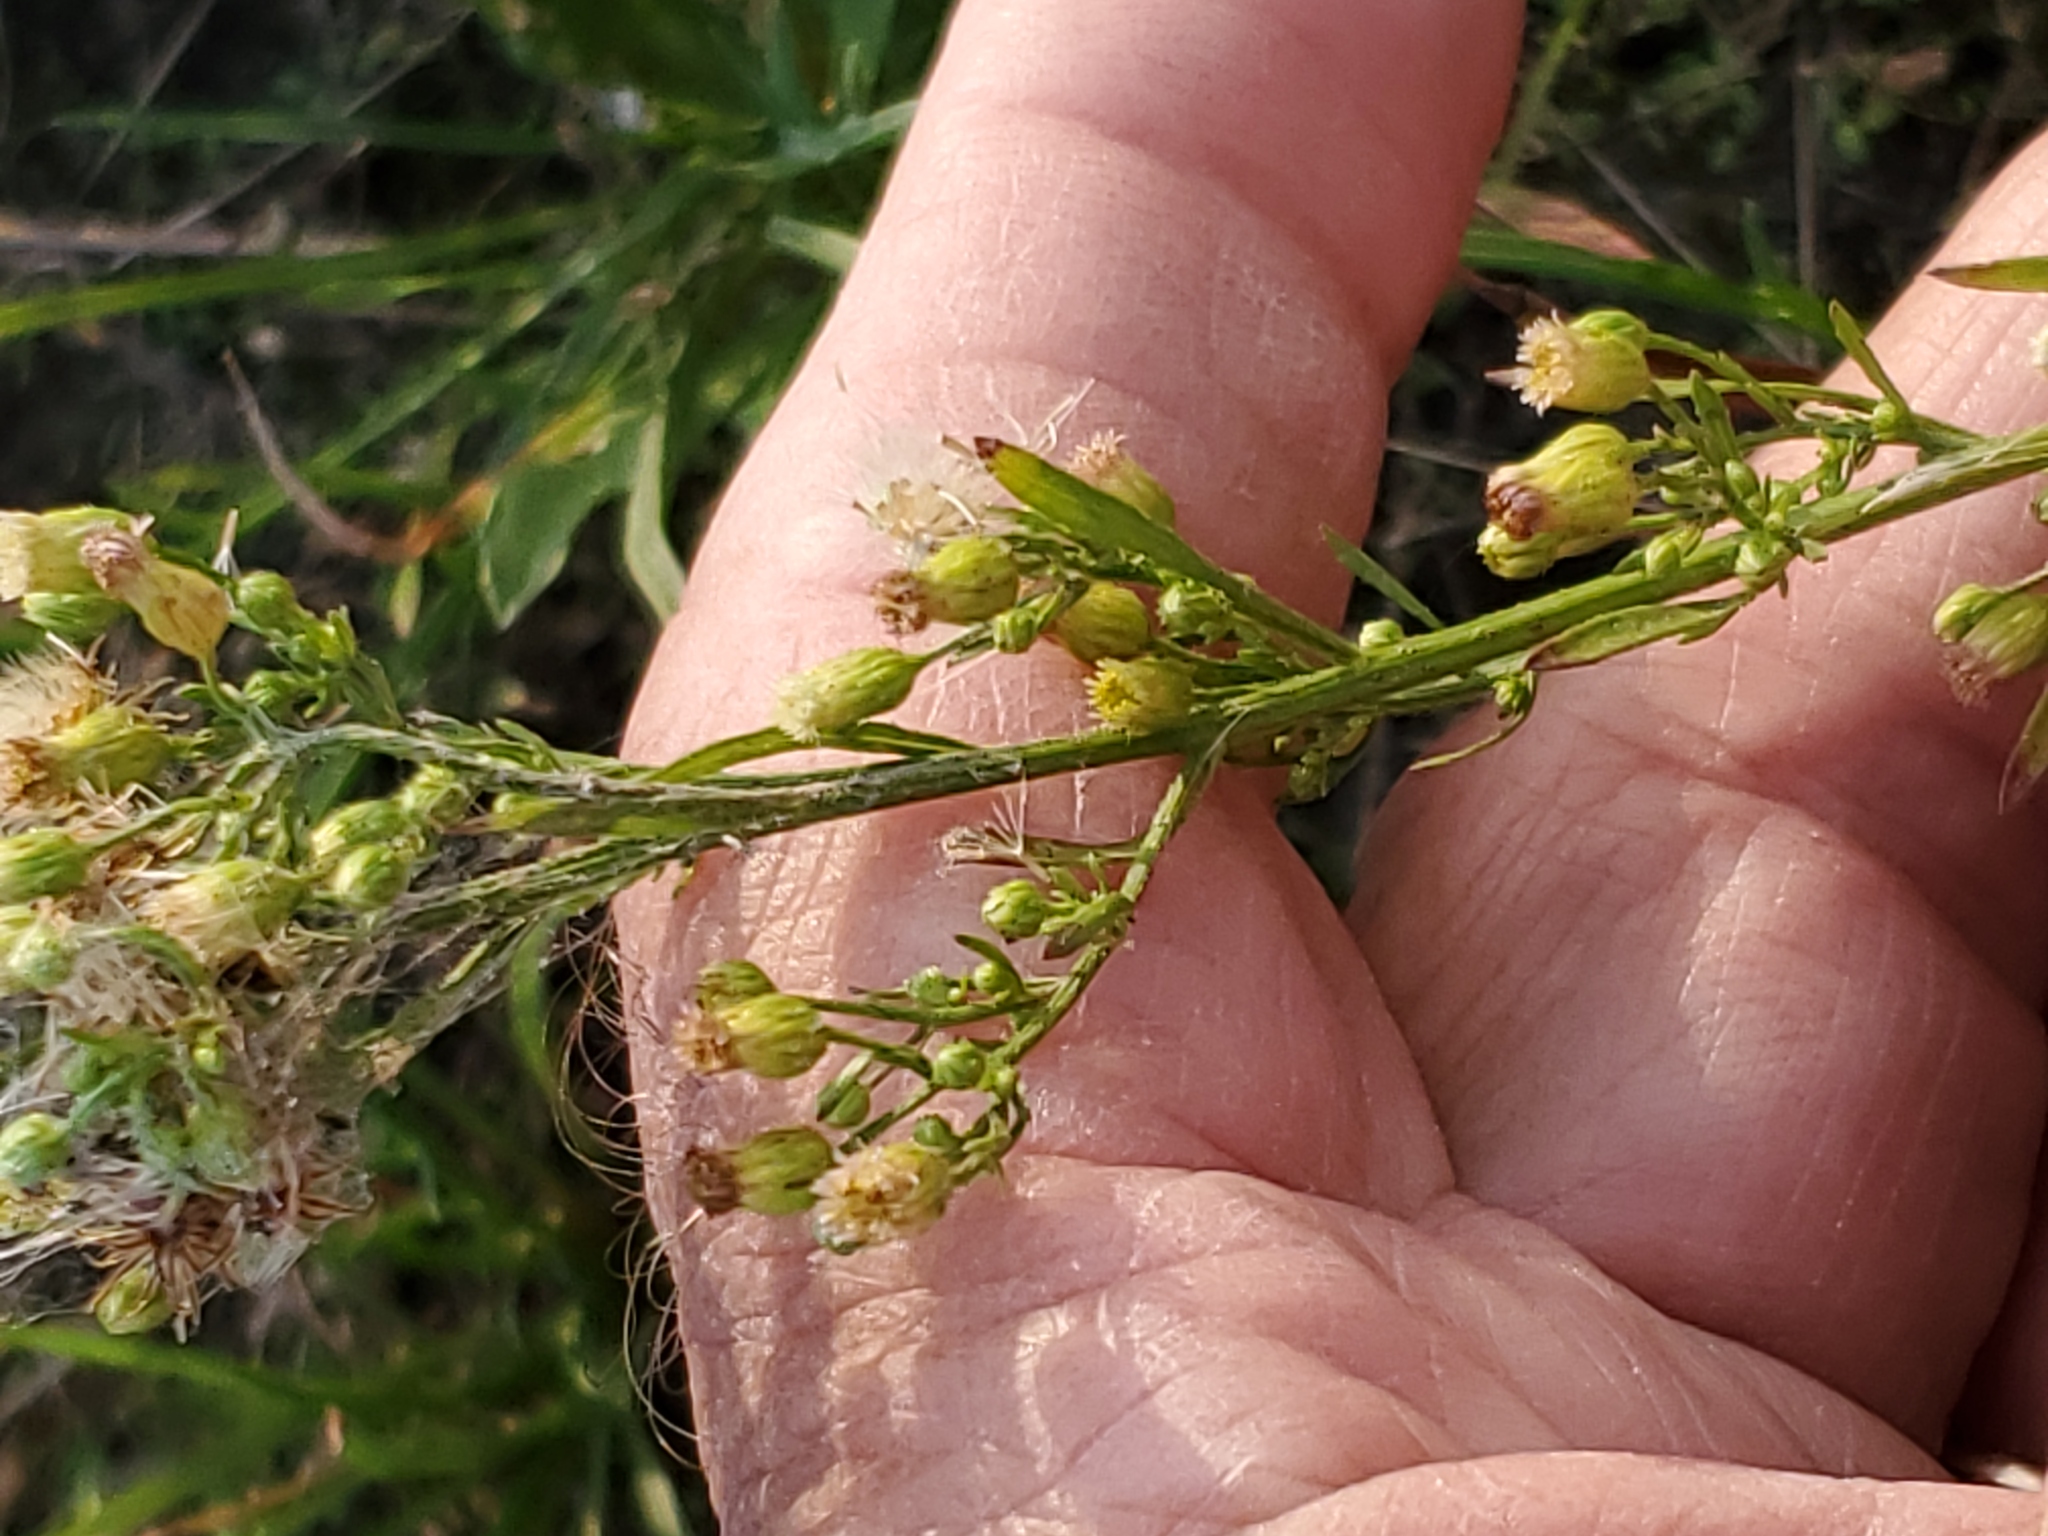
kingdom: Plantae
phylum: Tracheophyta
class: Magnoliopsida
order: Asterales
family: Asteraceae
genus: Erigeron
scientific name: Erigeron canadensis
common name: Canadian fleabane
